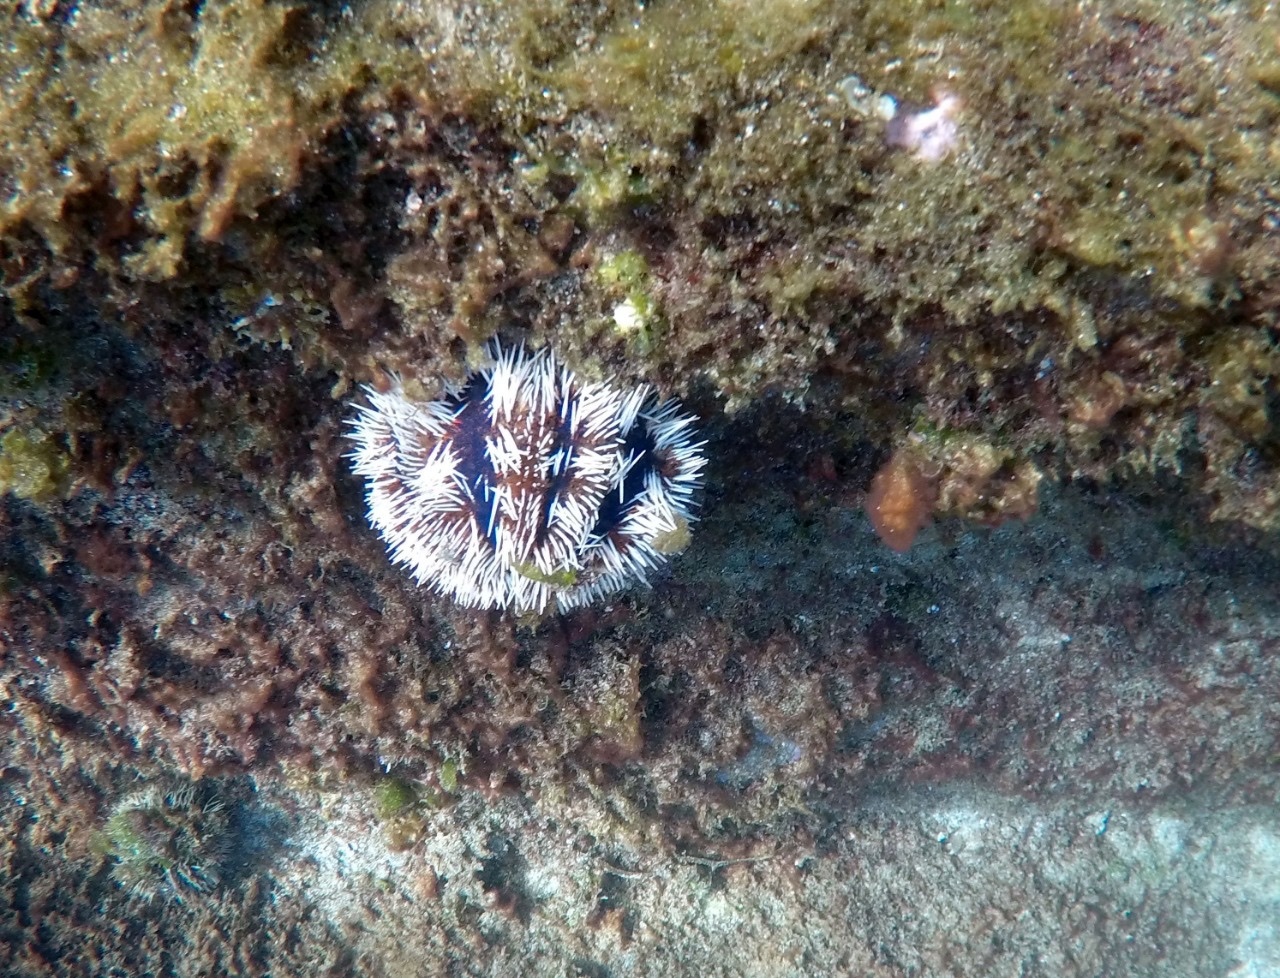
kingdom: Animalia
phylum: Echinodermata
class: Echinoidea
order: Camarodonta
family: Toxopneustidae
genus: Tripneustes
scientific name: Tripneustes gratilla
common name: Bischofsmützenseeigel
